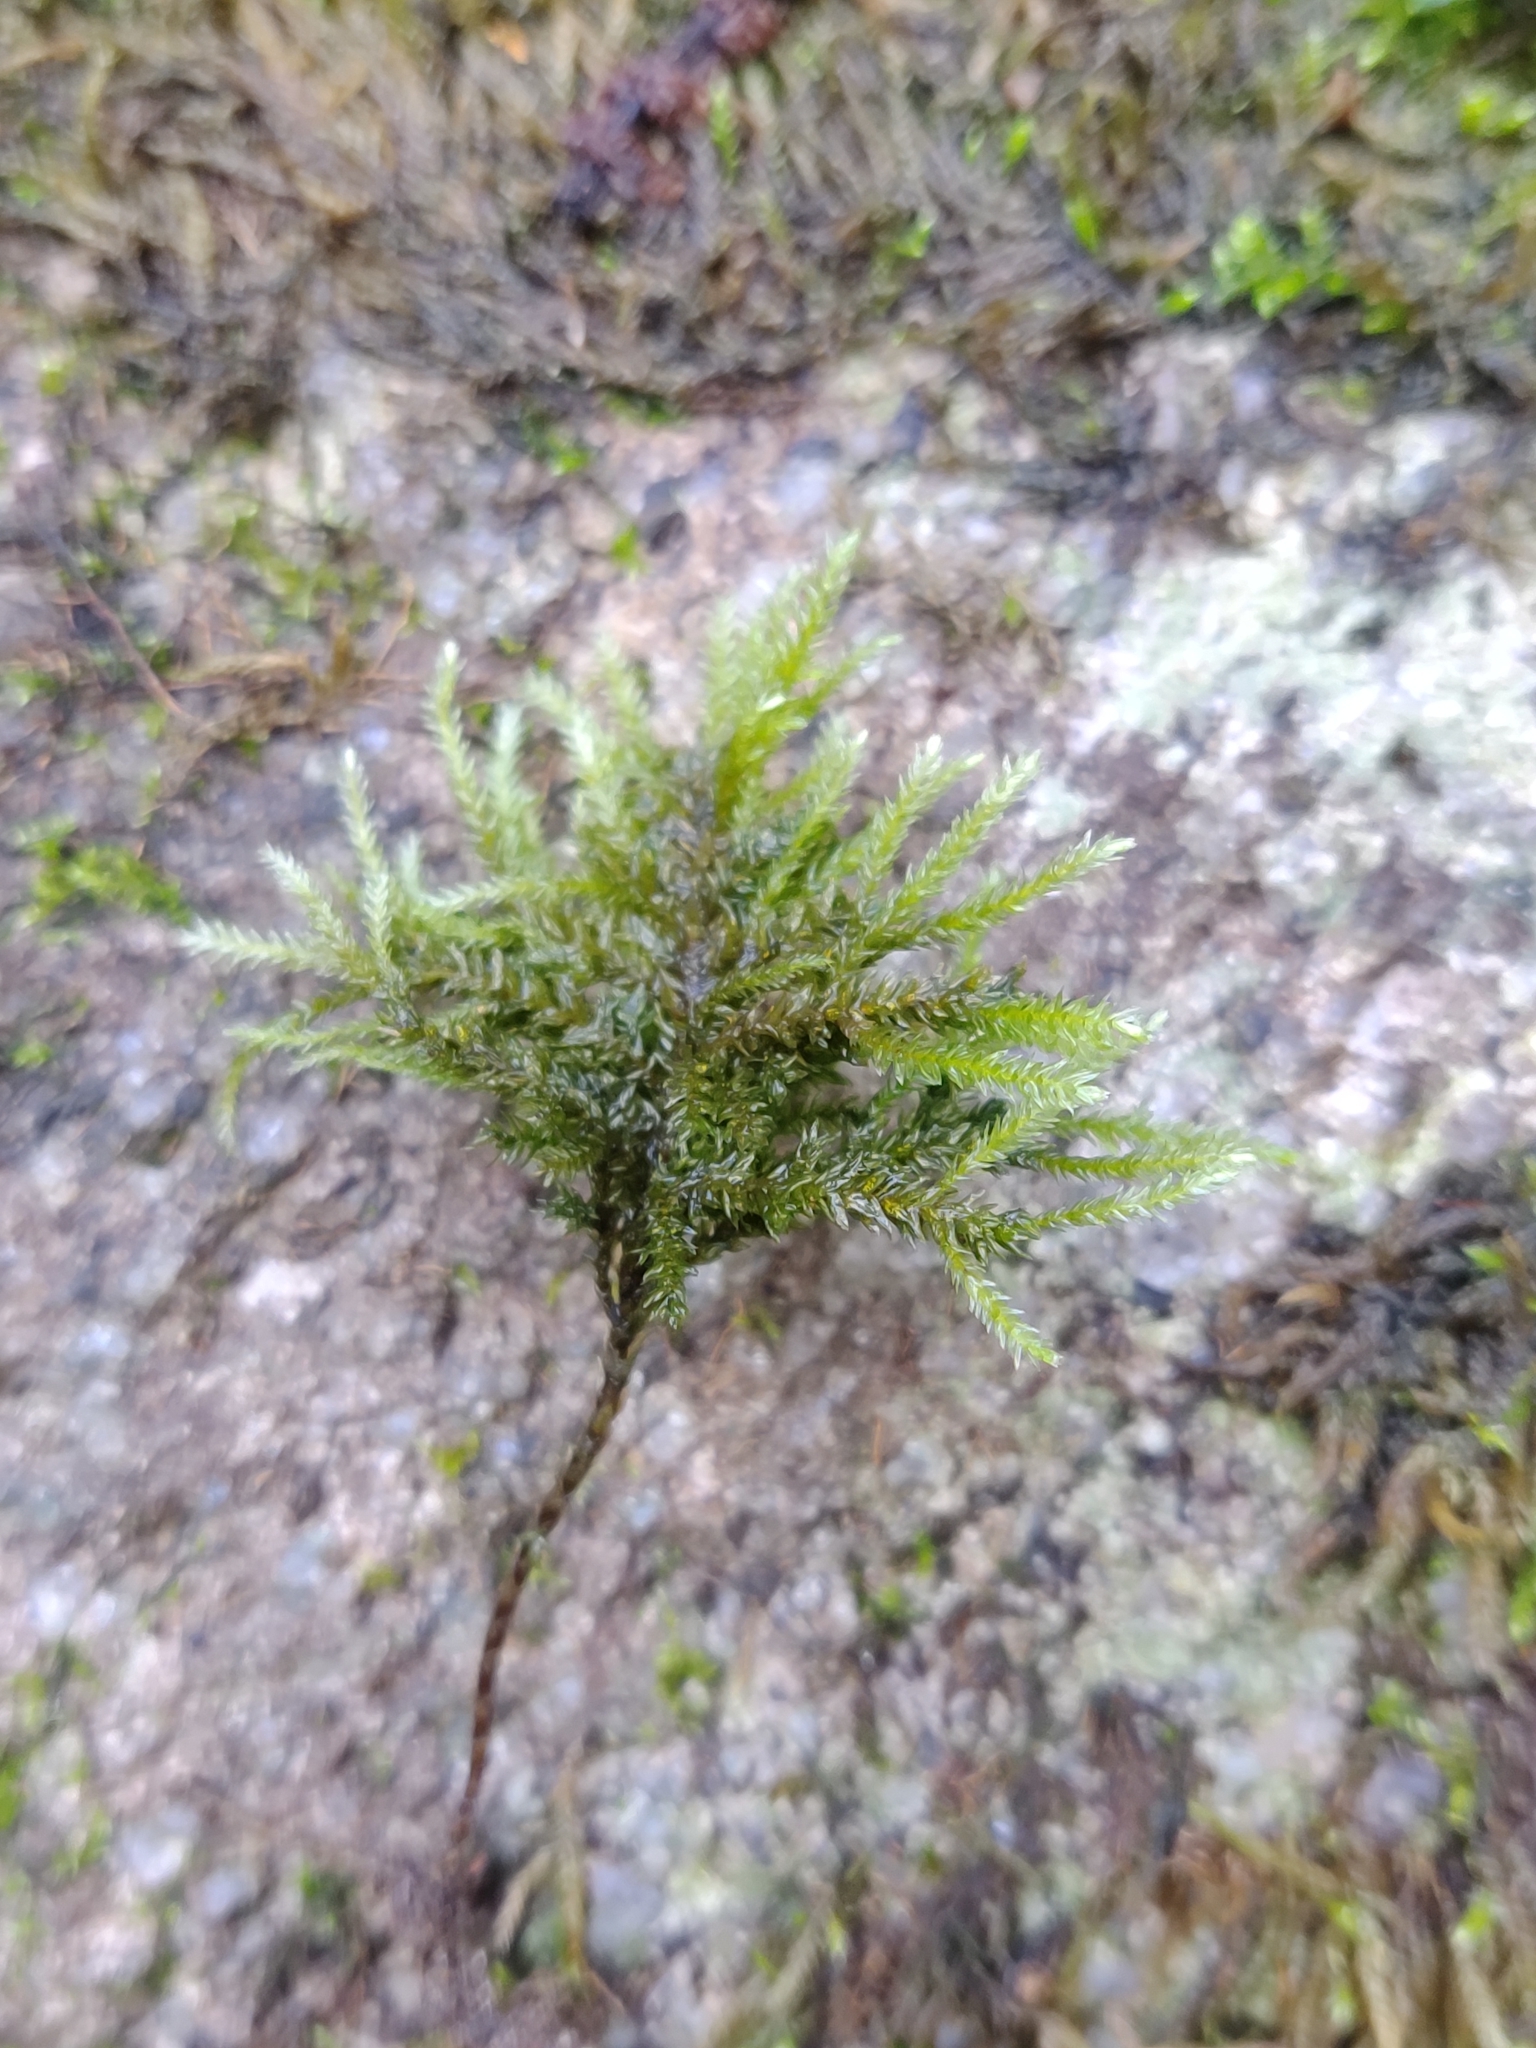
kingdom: Plantae
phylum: Bryophyta
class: Bryopsida
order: Hypnales
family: Neckeraceae
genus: Thamnobryum
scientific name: Thamnobryum alopecurum
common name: Fox-tail feather-moss
